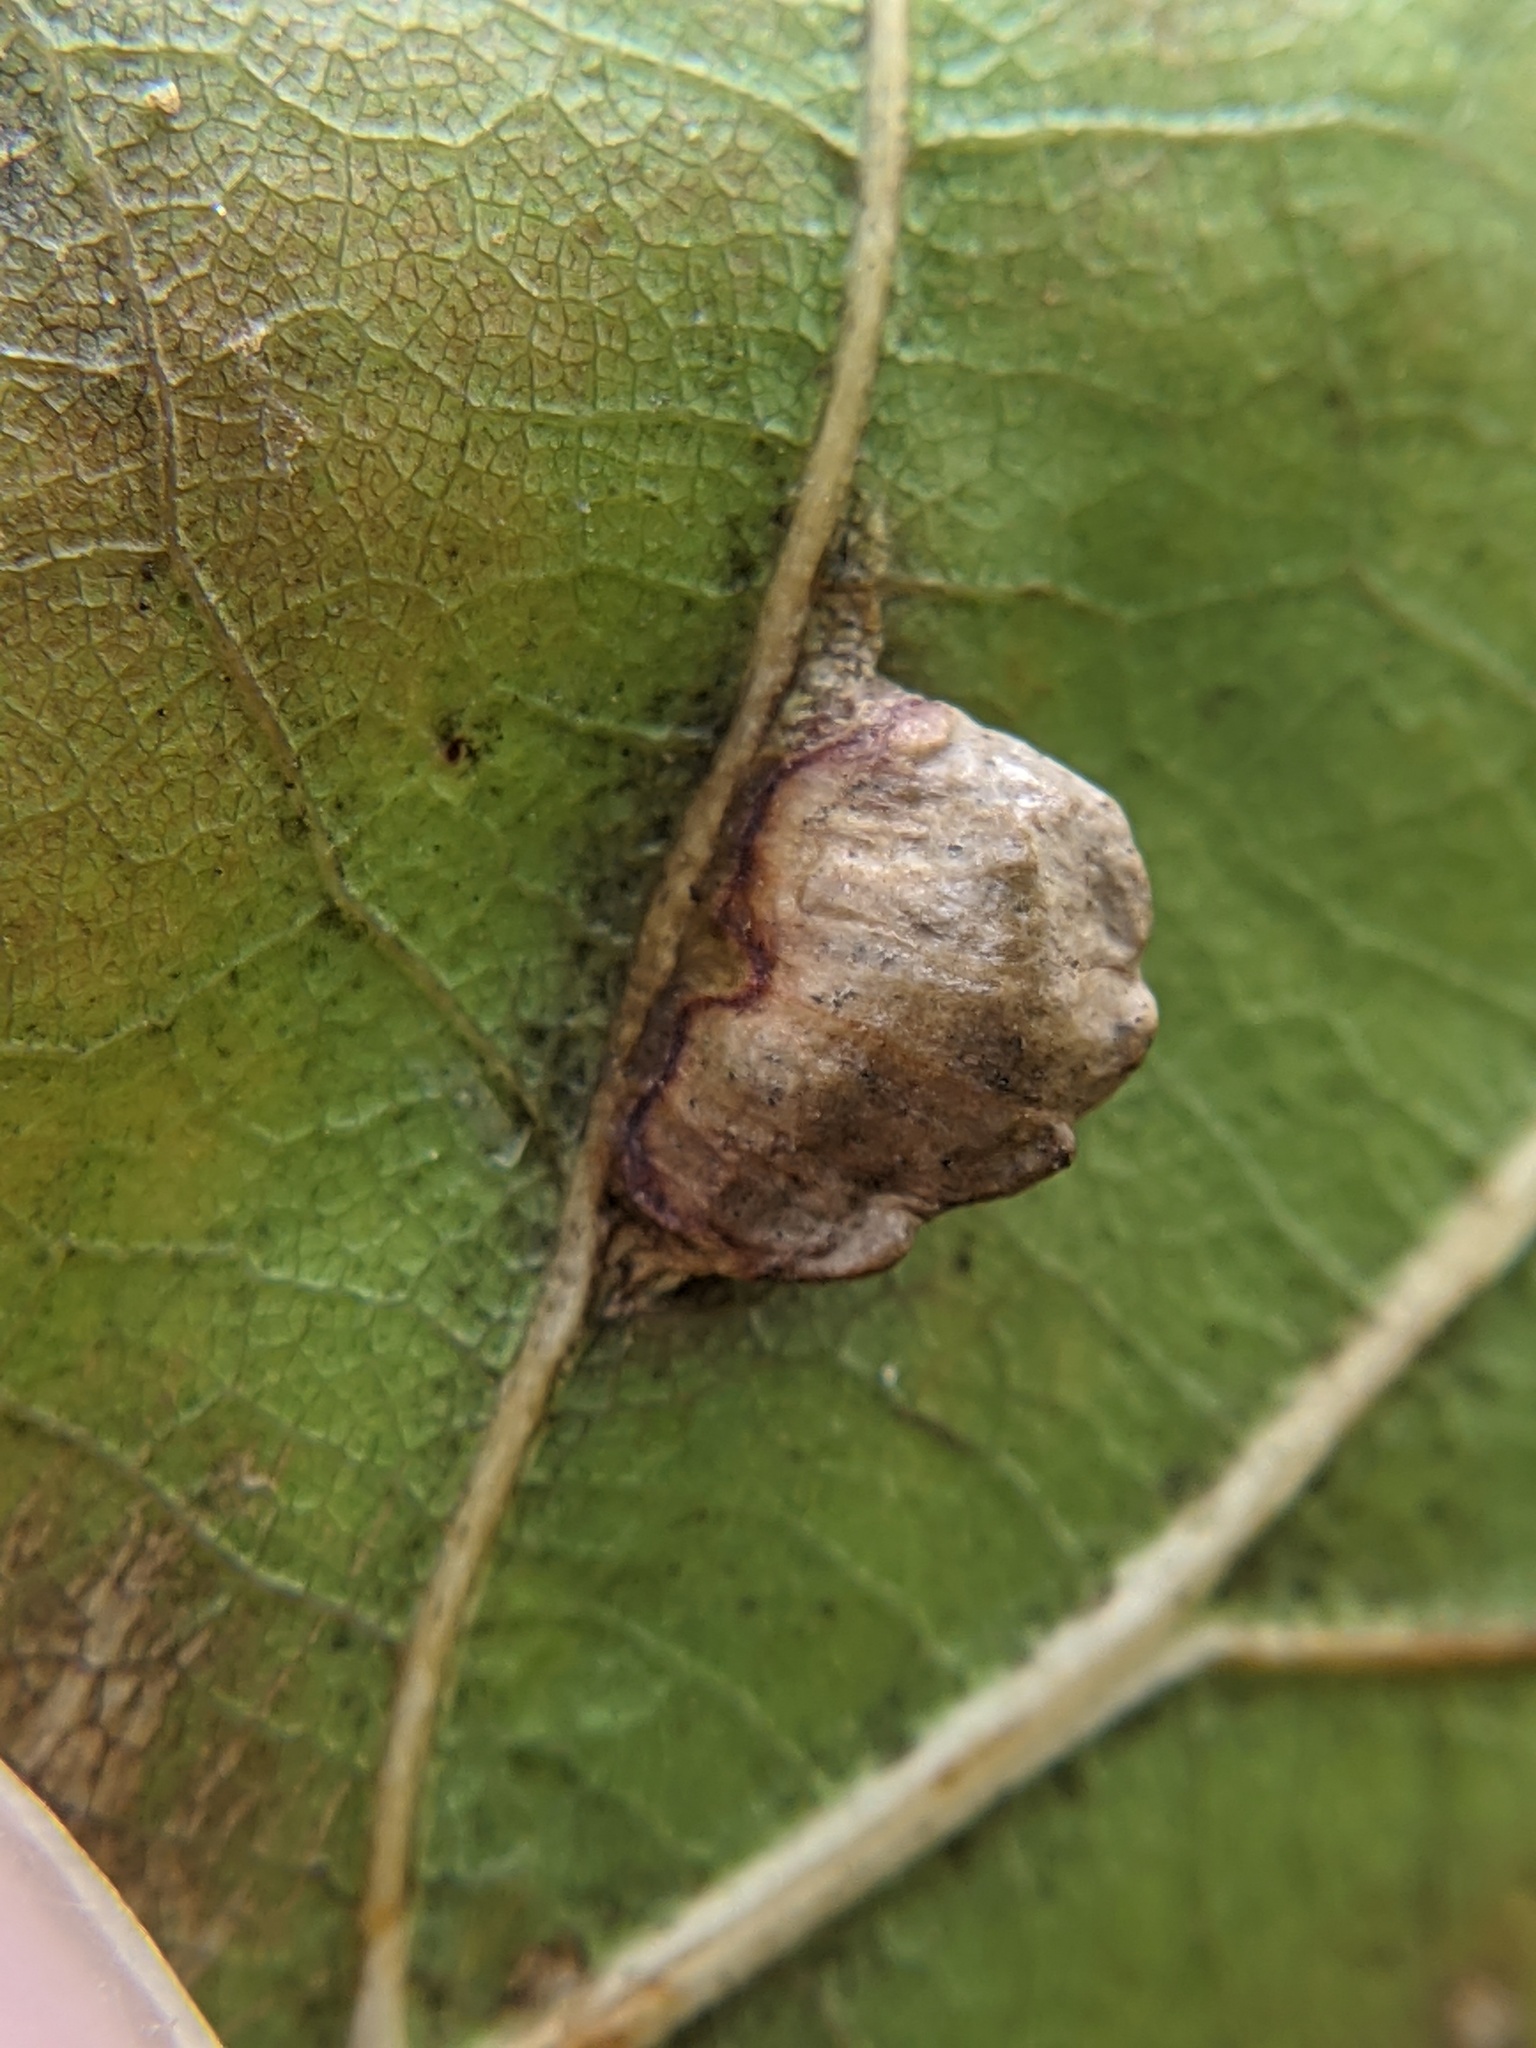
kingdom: Animalia
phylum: Arthropoda
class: Insecta
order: Diptera
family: Cecidomyiidae
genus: Macrodiplosis
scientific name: Macrodiplosis majalis
